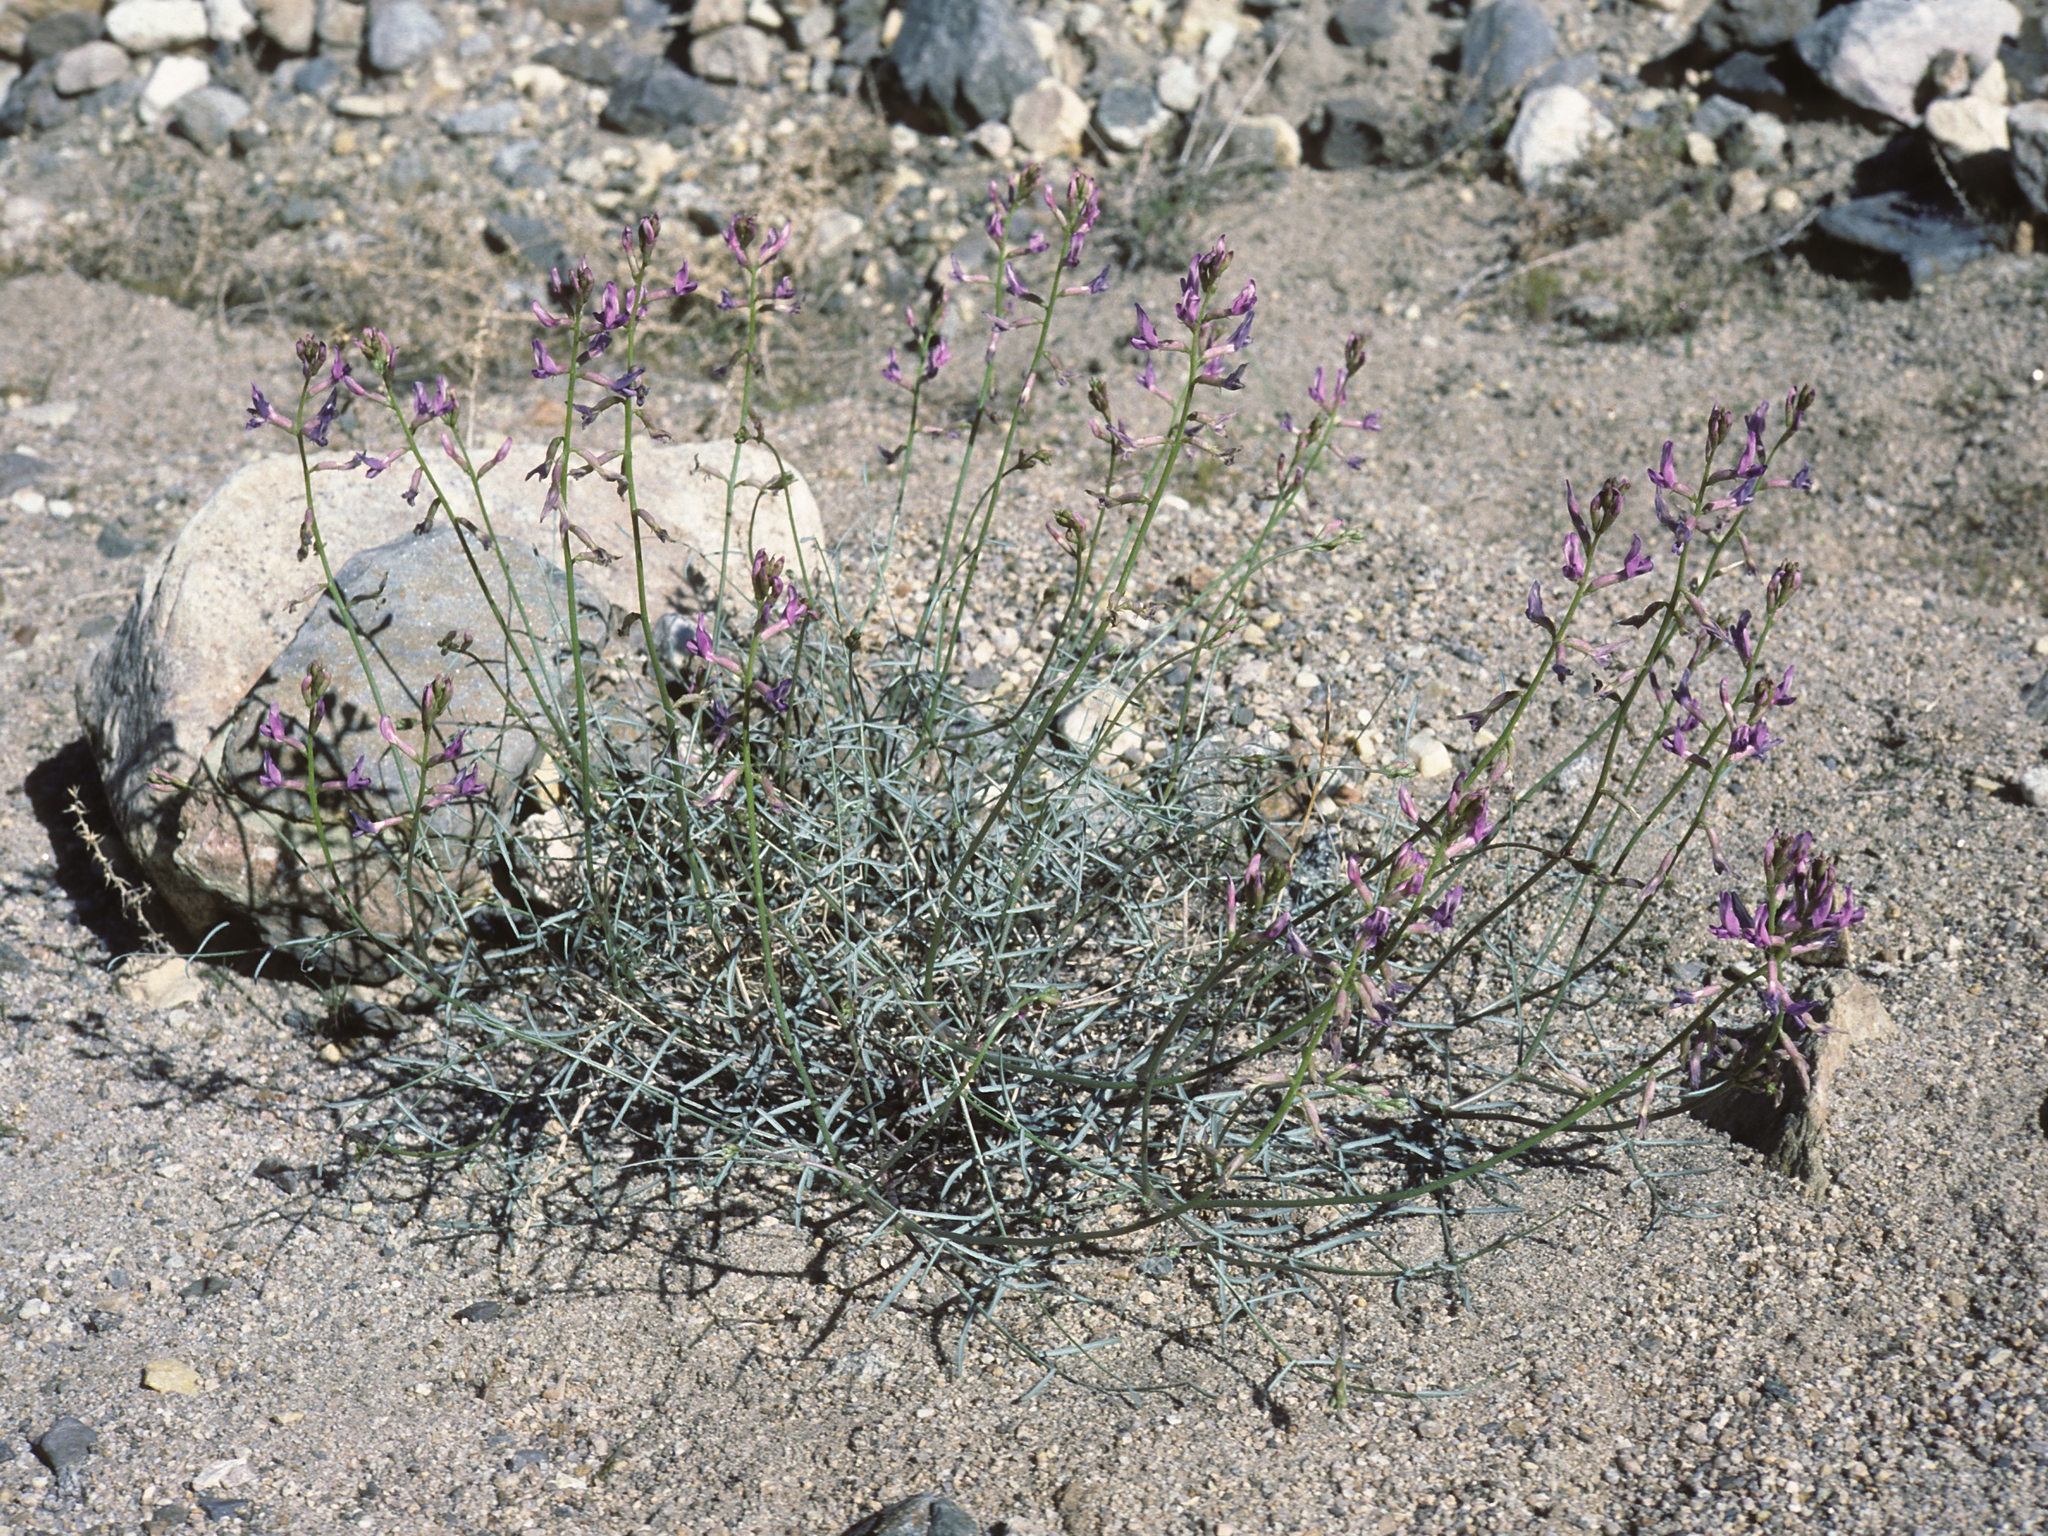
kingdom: Plantae
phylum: Tracheophyta
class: Magnoliopsida
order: Fabales
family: Fabaceae
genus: Astragalus
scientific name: Astragalus serenoi
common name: Naked milk-vetch
